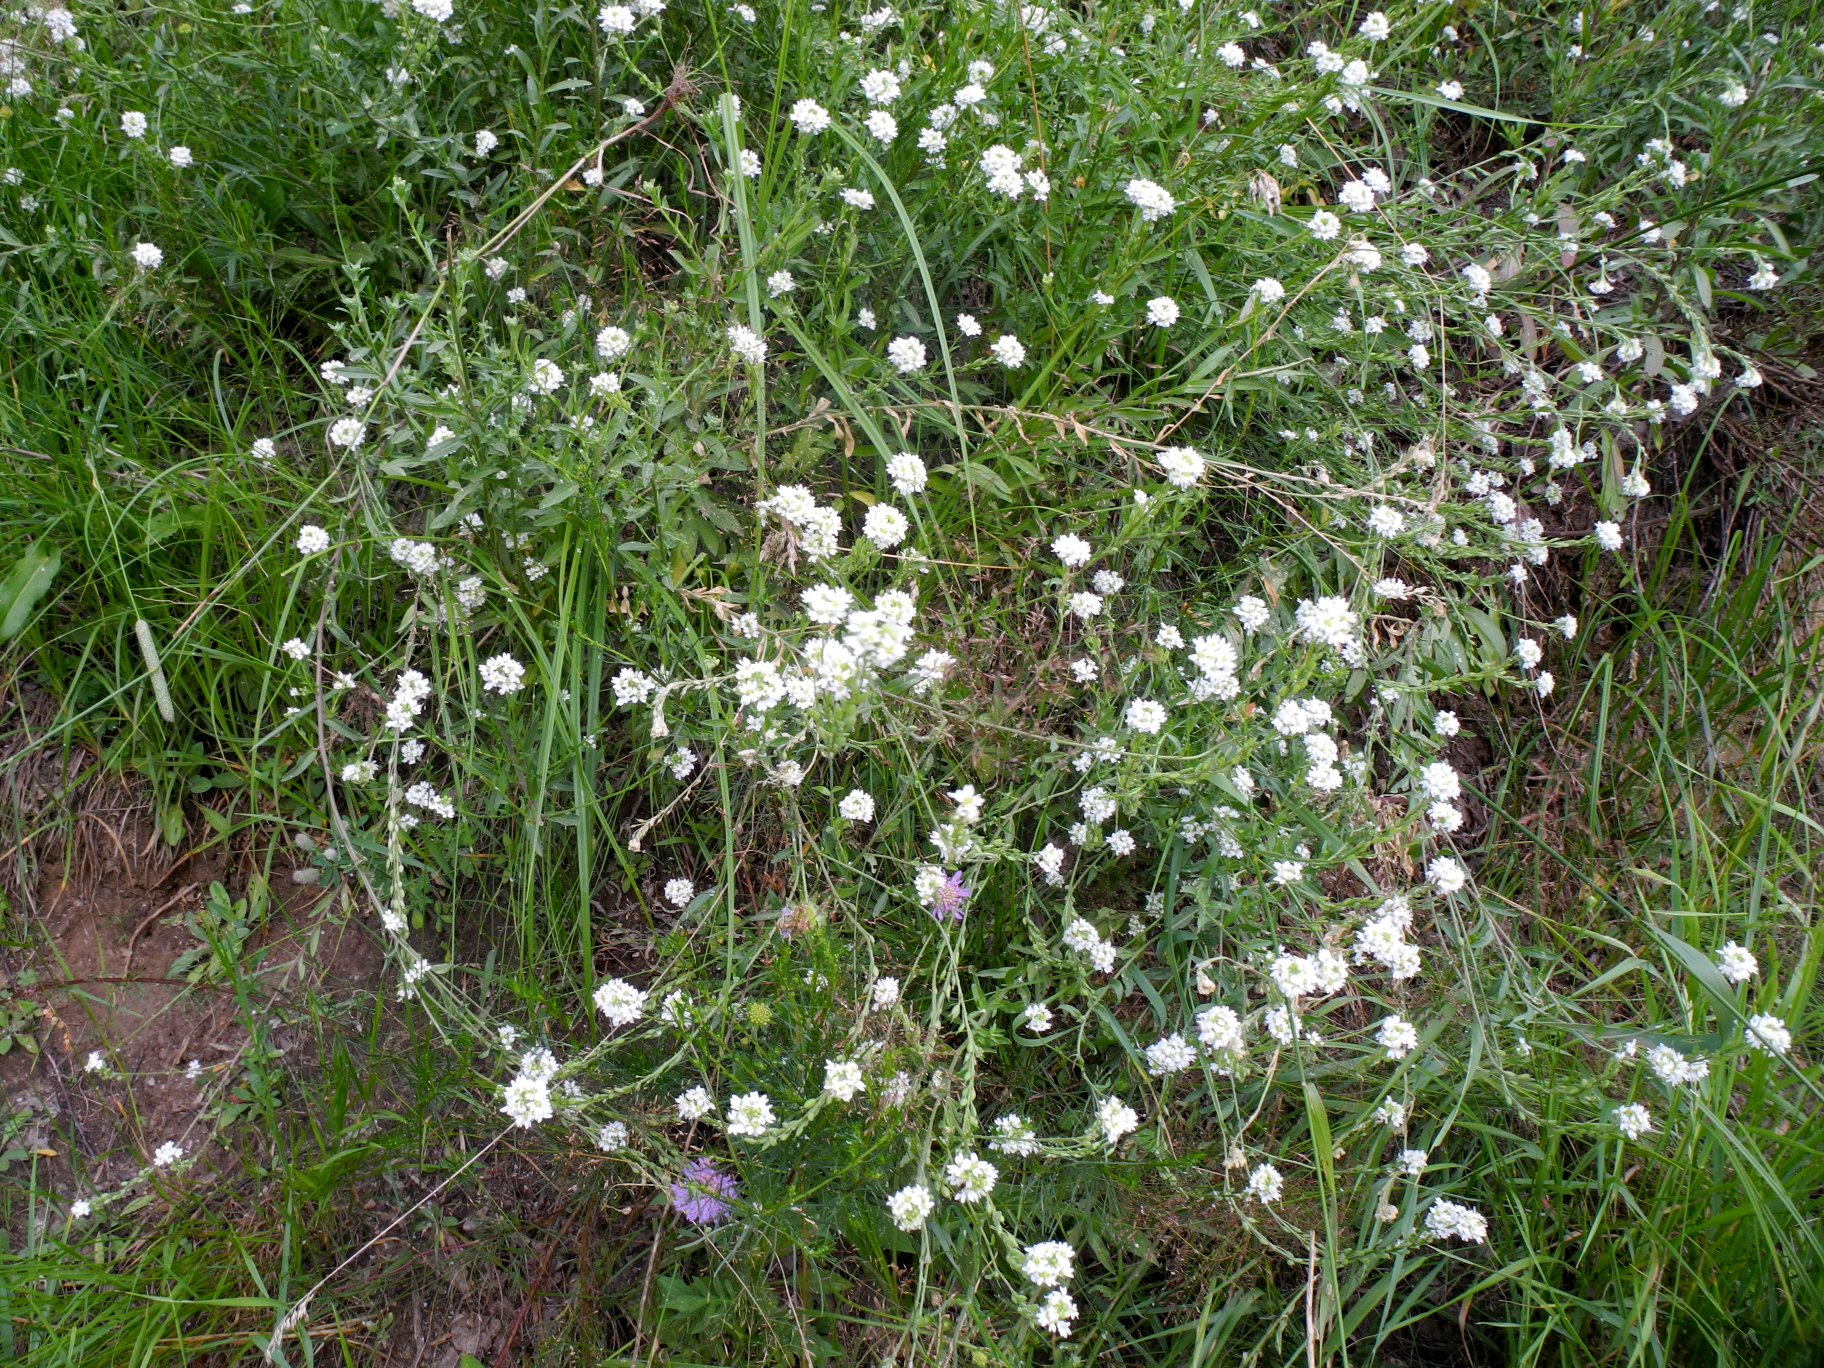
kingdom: Plantae
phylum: Tracheophyta
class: Magnoliopsida
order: Brassicales
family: Brassicaceae
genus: Berteroa
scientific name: Berteroa incana
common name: Hoary alison
